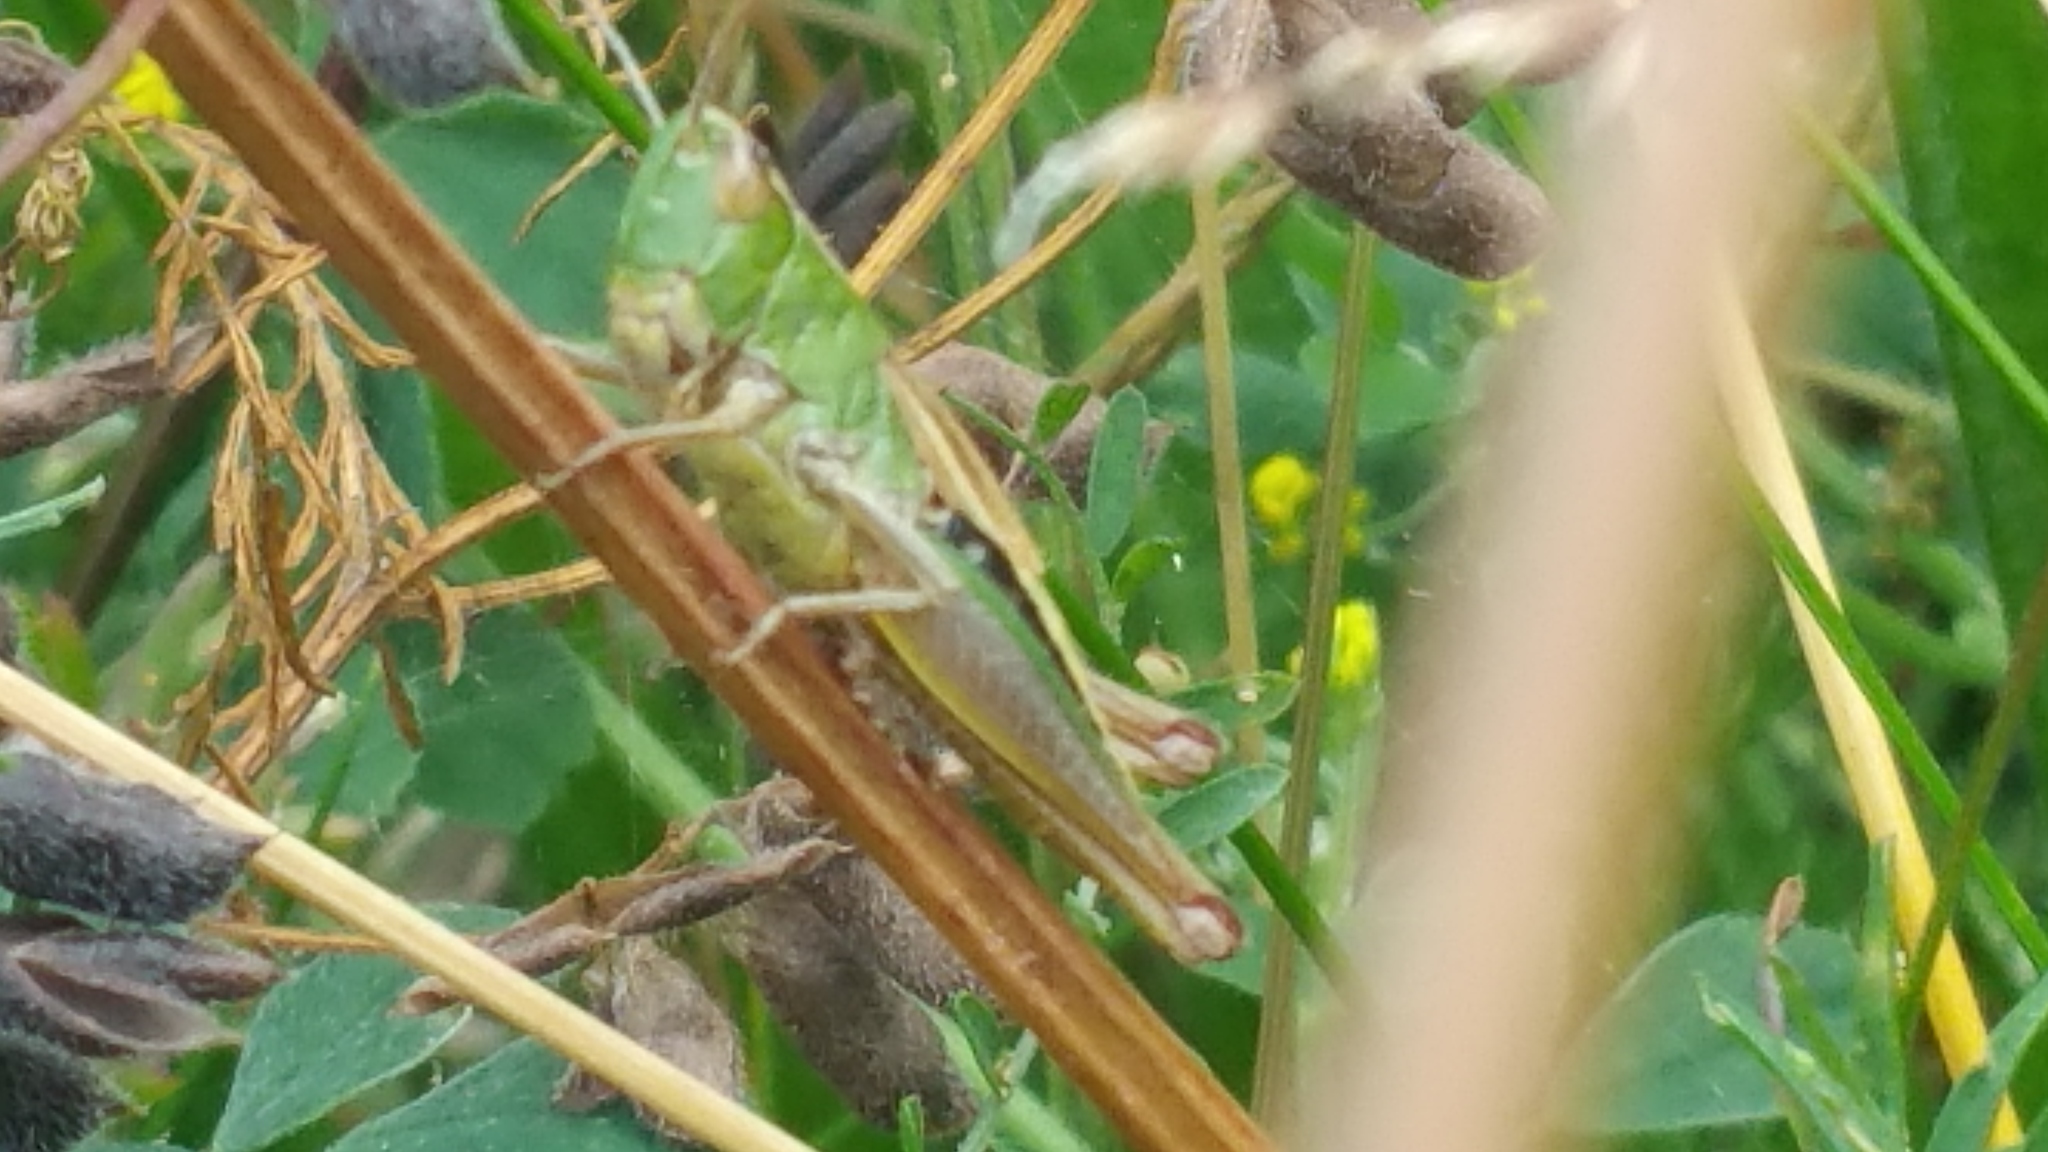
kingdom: Animalia
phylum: Arthropoda
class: Insecta
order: Orthoptera
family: Acrididae
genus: Pseudochorthippus
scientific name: Pseudochorthippus parallelus
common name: Meadow grasshopper
